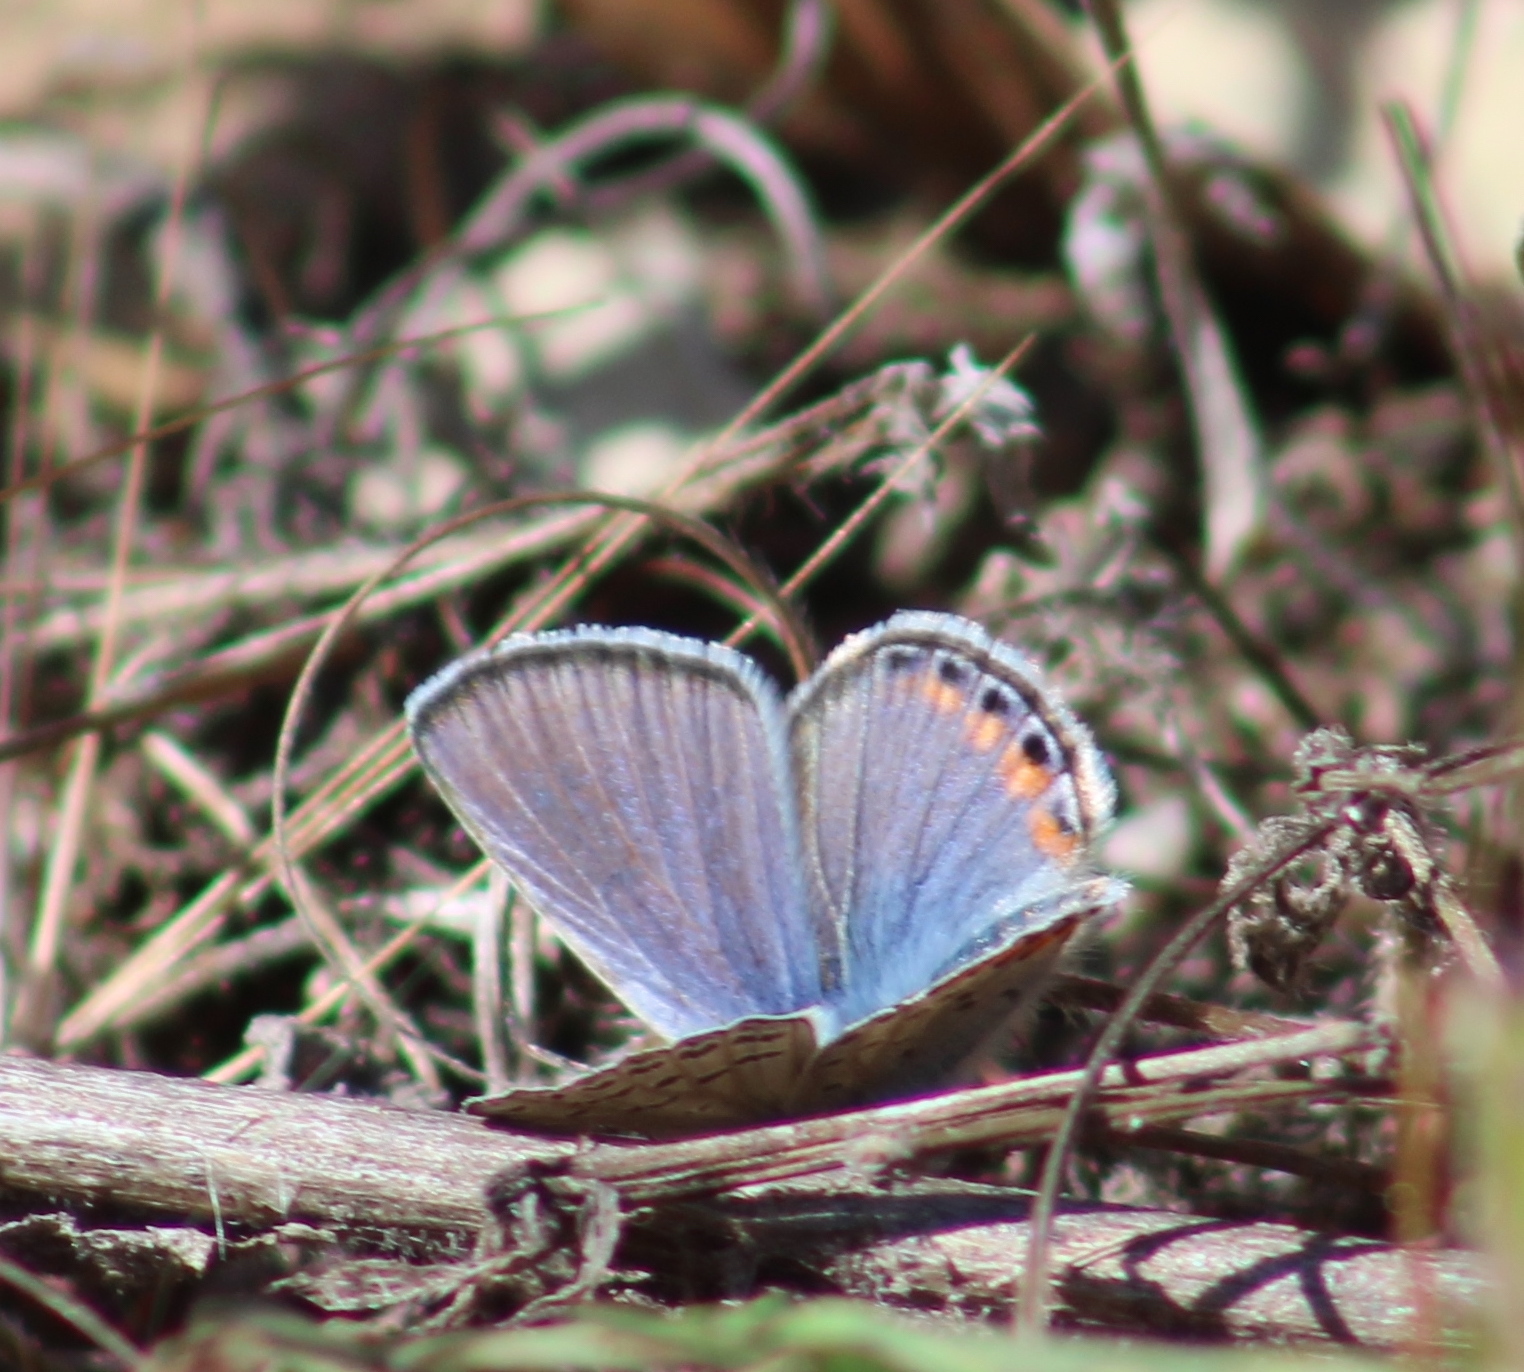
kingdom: Animalia
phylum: Arthropoda
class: Insecta
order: Lepidoptera
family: Lycaenidae
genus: Icaricia
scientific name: Icaricia acmon
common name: Acmon blue
